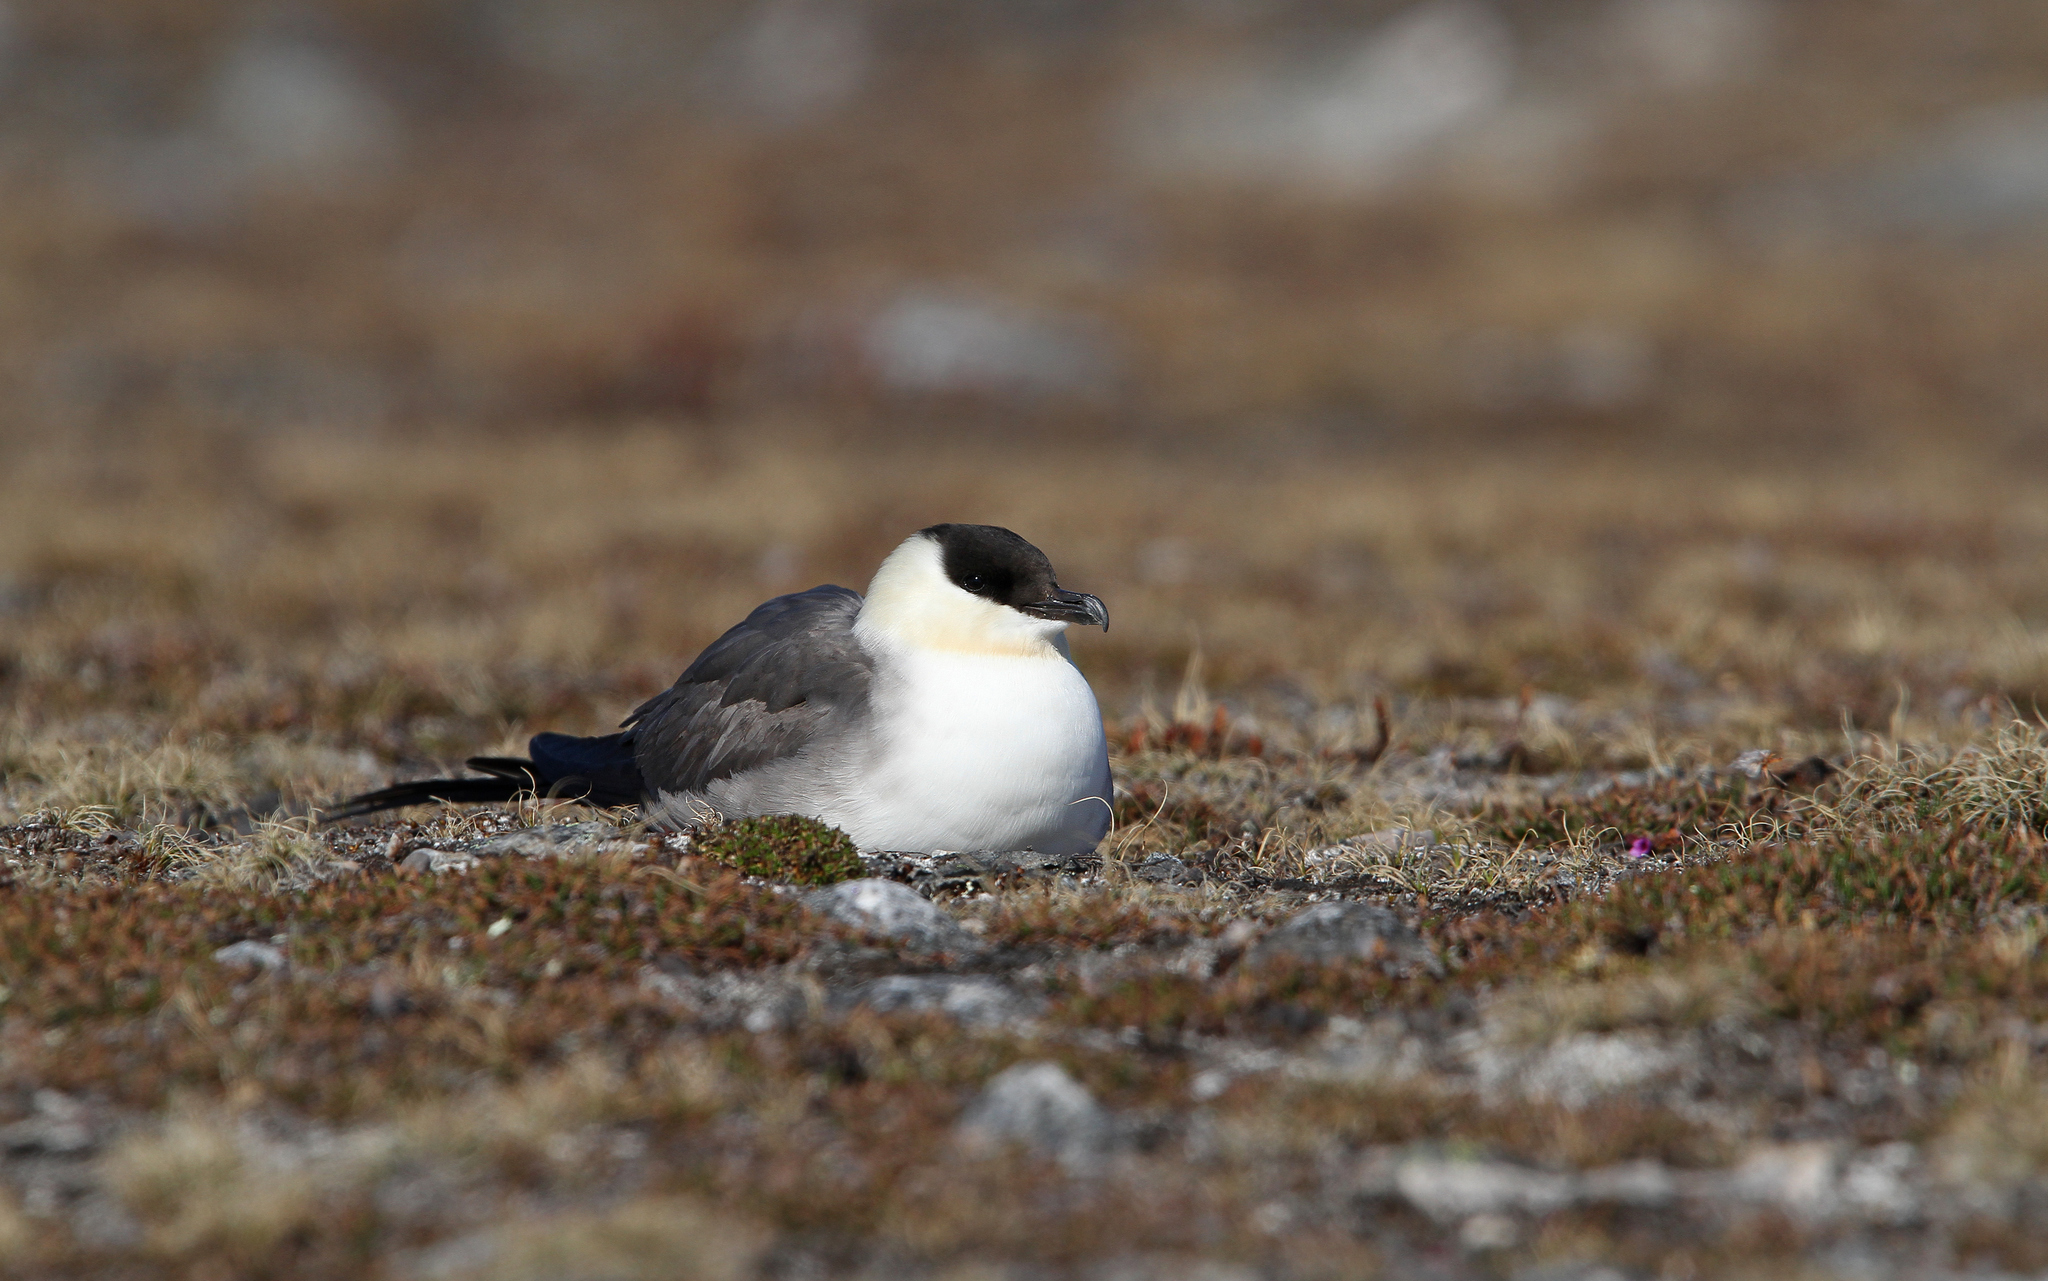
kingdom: Animalia
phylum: Chordata
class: Aves
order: Charadriiformes
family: Stercorariidae
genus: Stercorarius
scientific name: Stercorarius longicaudus
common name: Long-tailed jaeger
